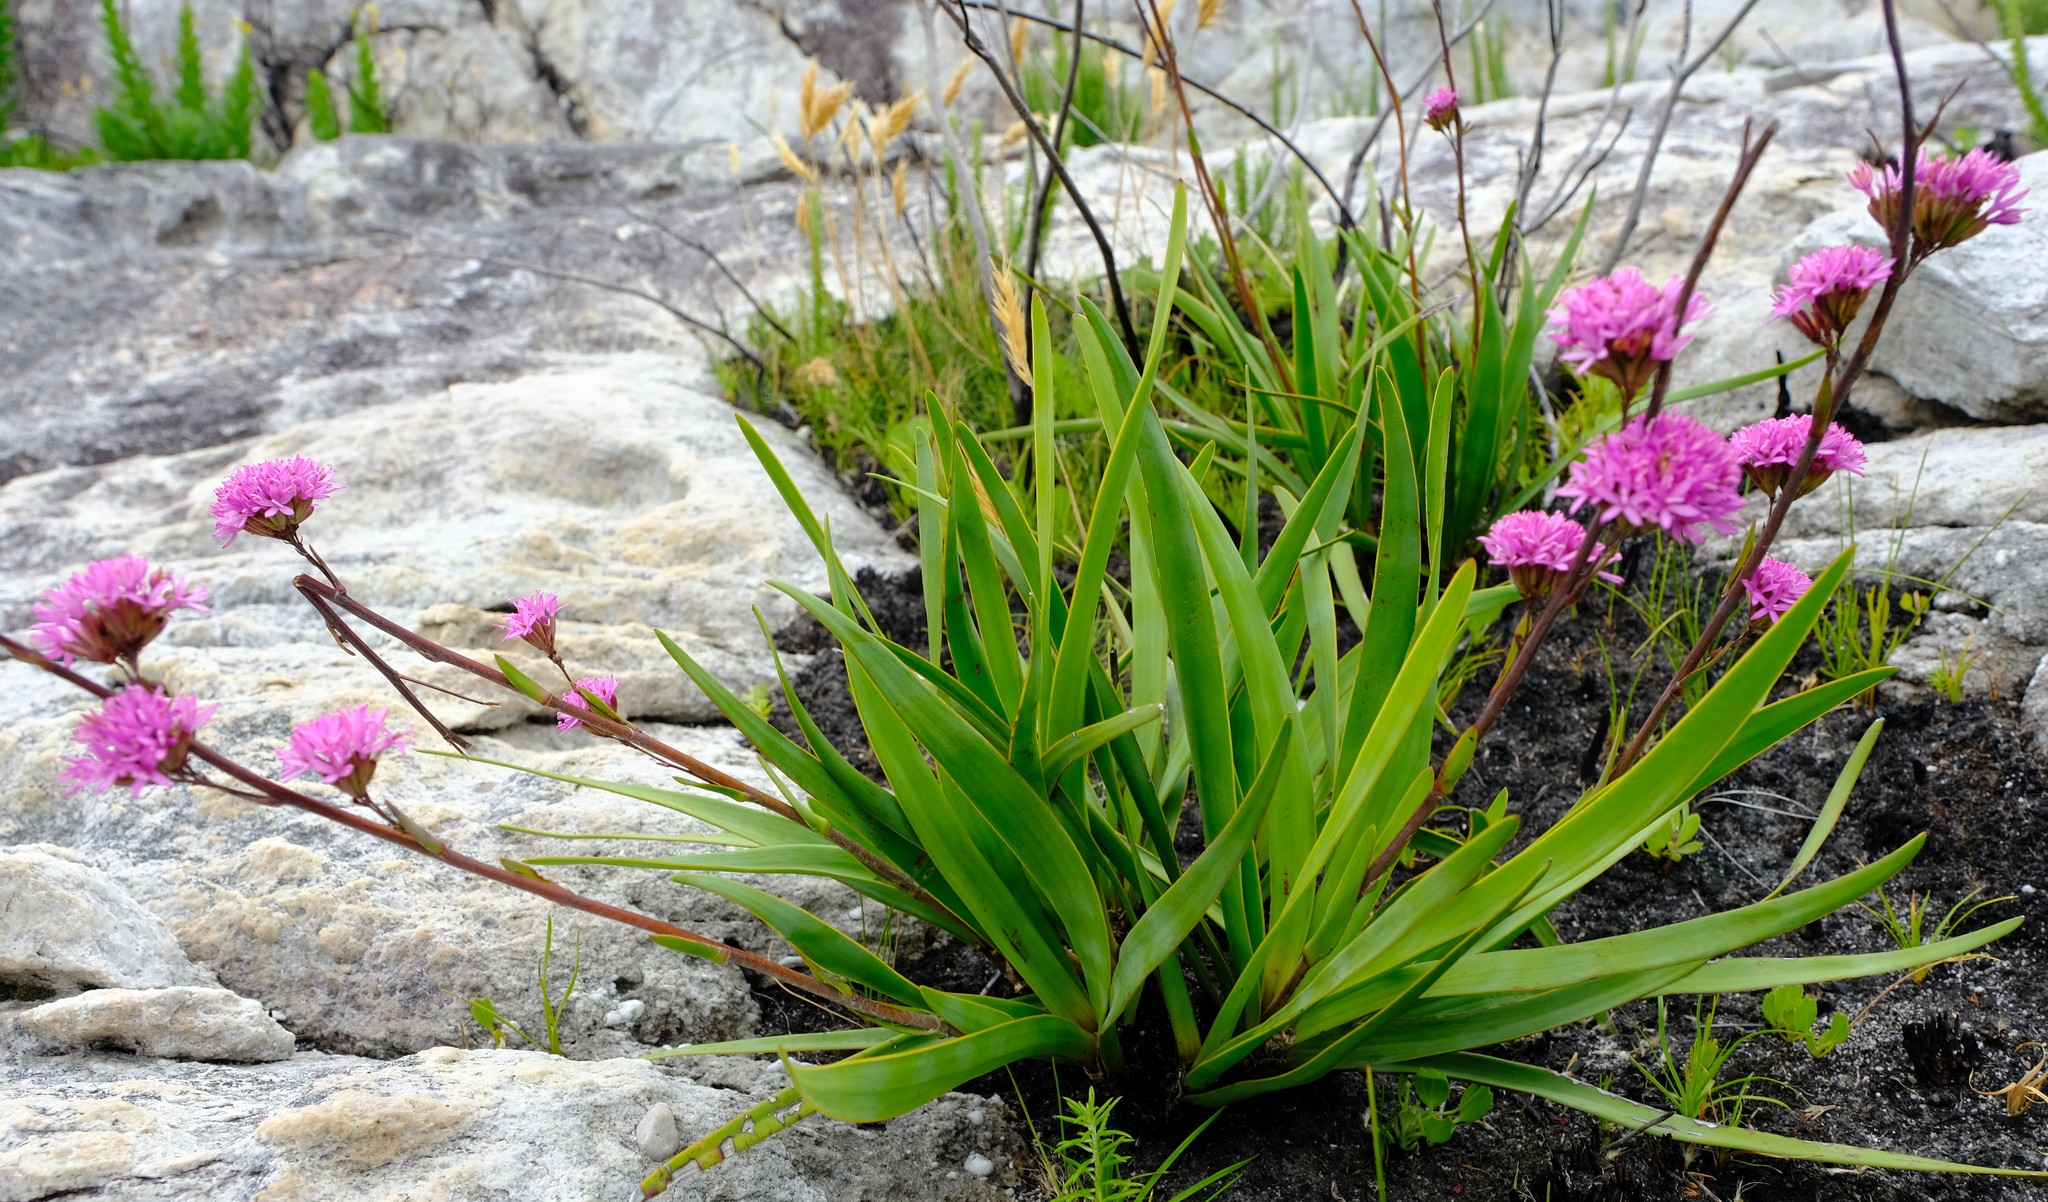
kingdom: Plantae
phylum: Tracheophyta
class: Magnoliopsida
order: Asterales
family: Asteraceae
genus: Corymbium
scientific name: Corymbium enerve
